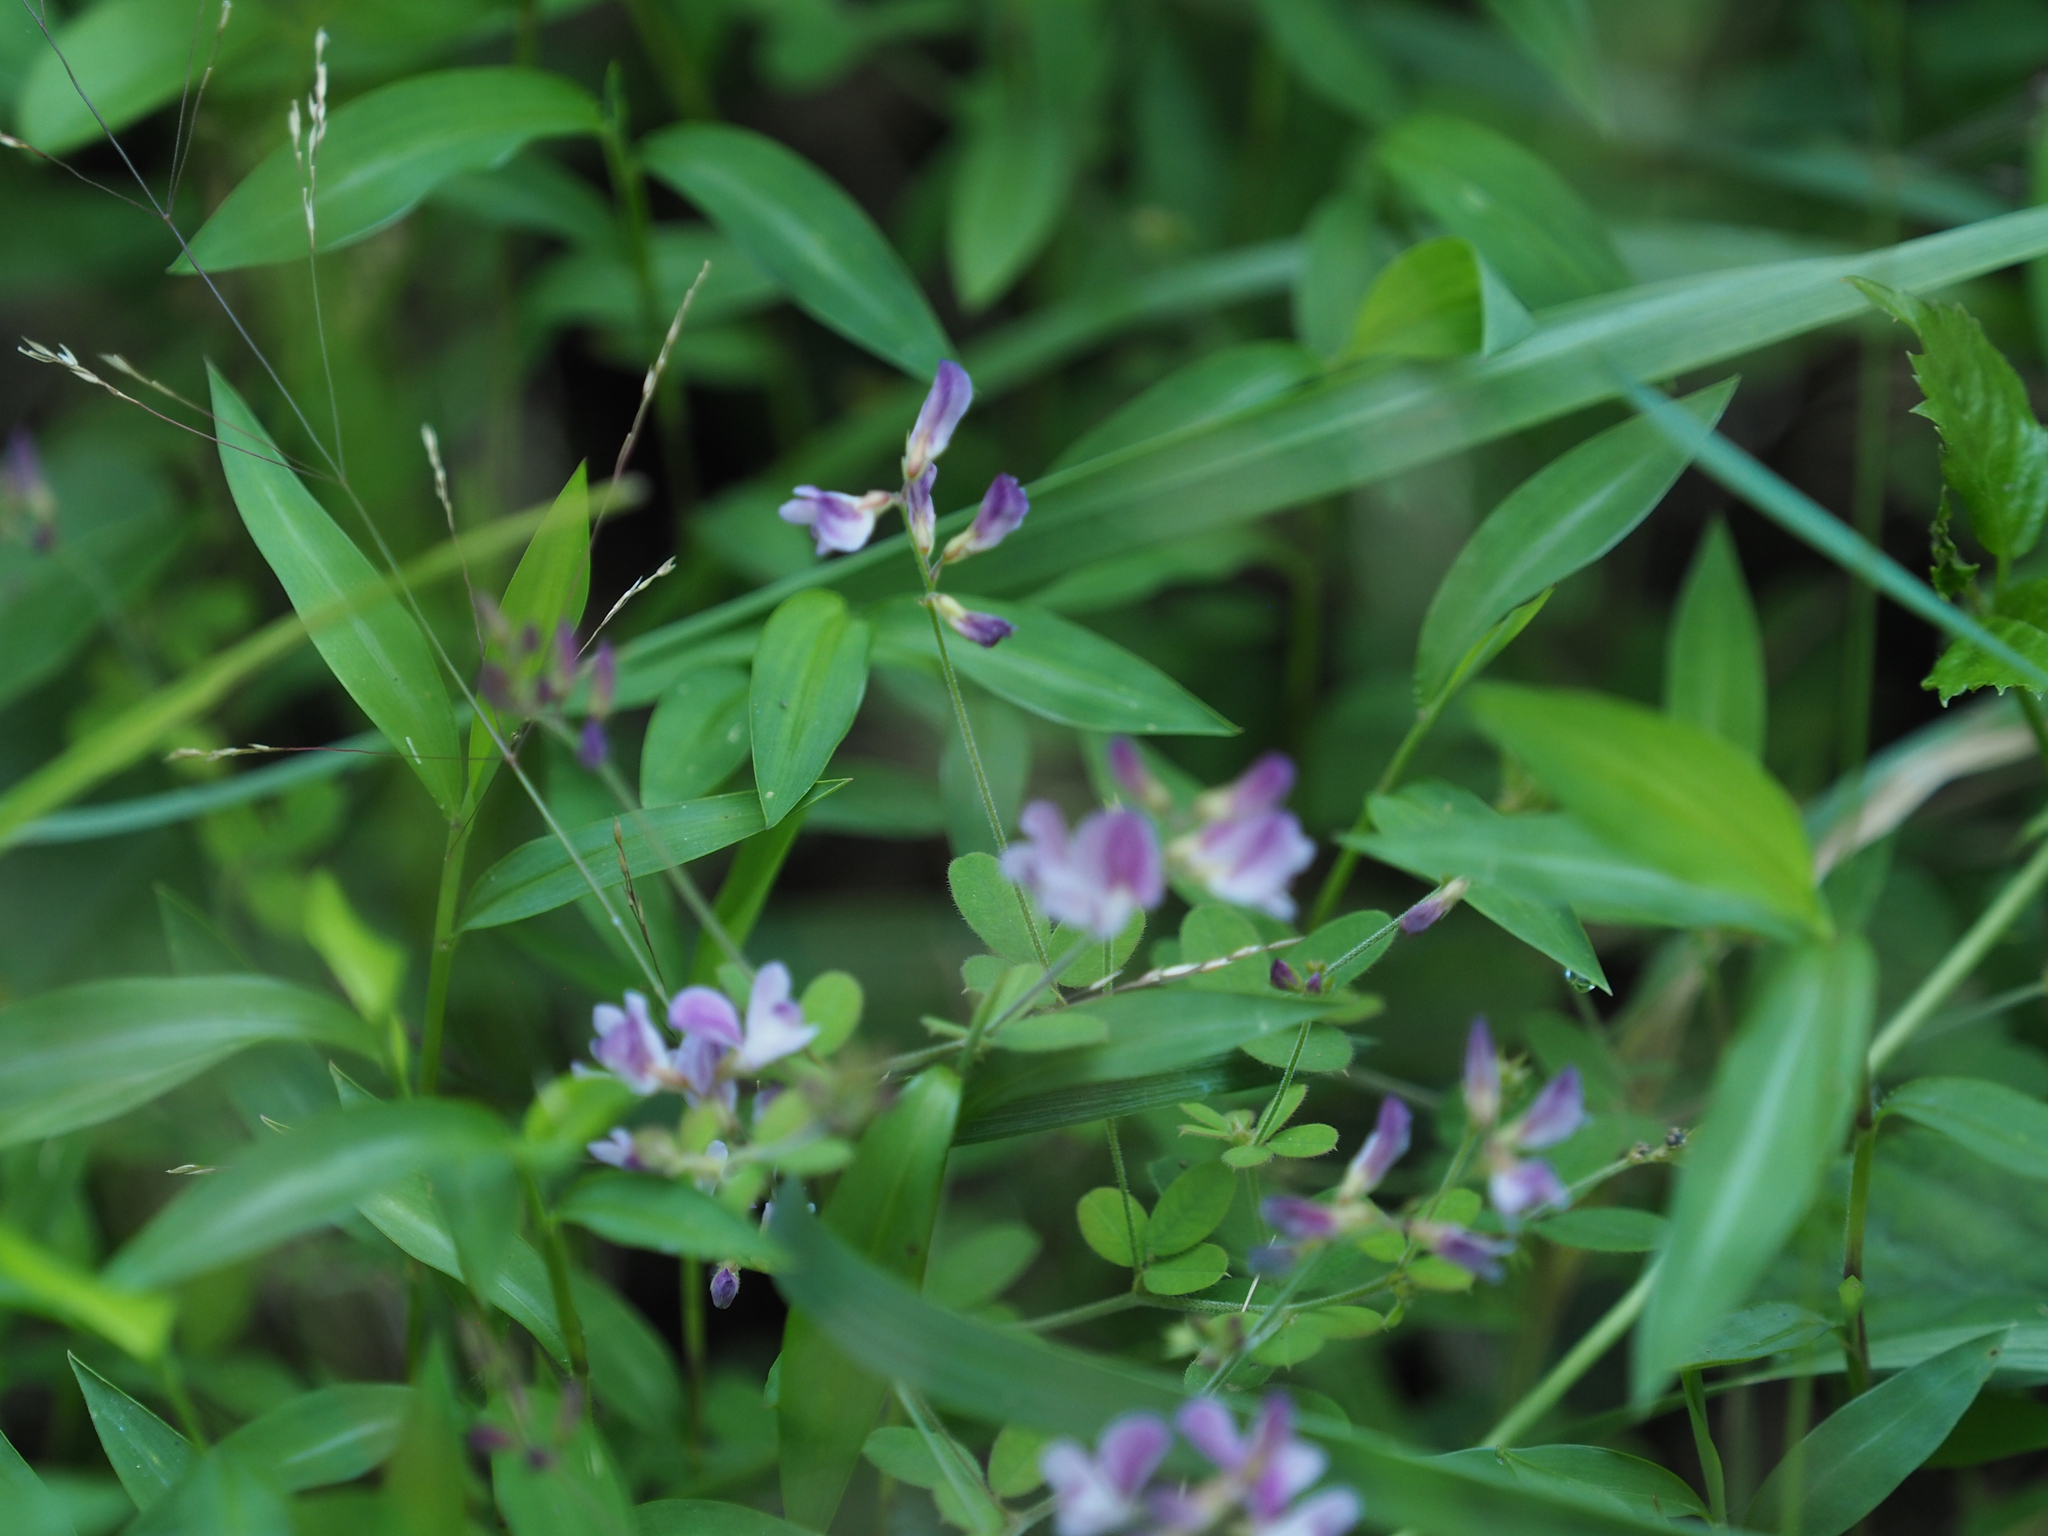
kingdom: Plantae
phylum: Tracheophyta
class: Magnoliopsida
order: Fabales
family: Fabaceae
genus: Lespedeza
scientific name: Lespedeza procumbens
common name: Downy trailing bush-clover
